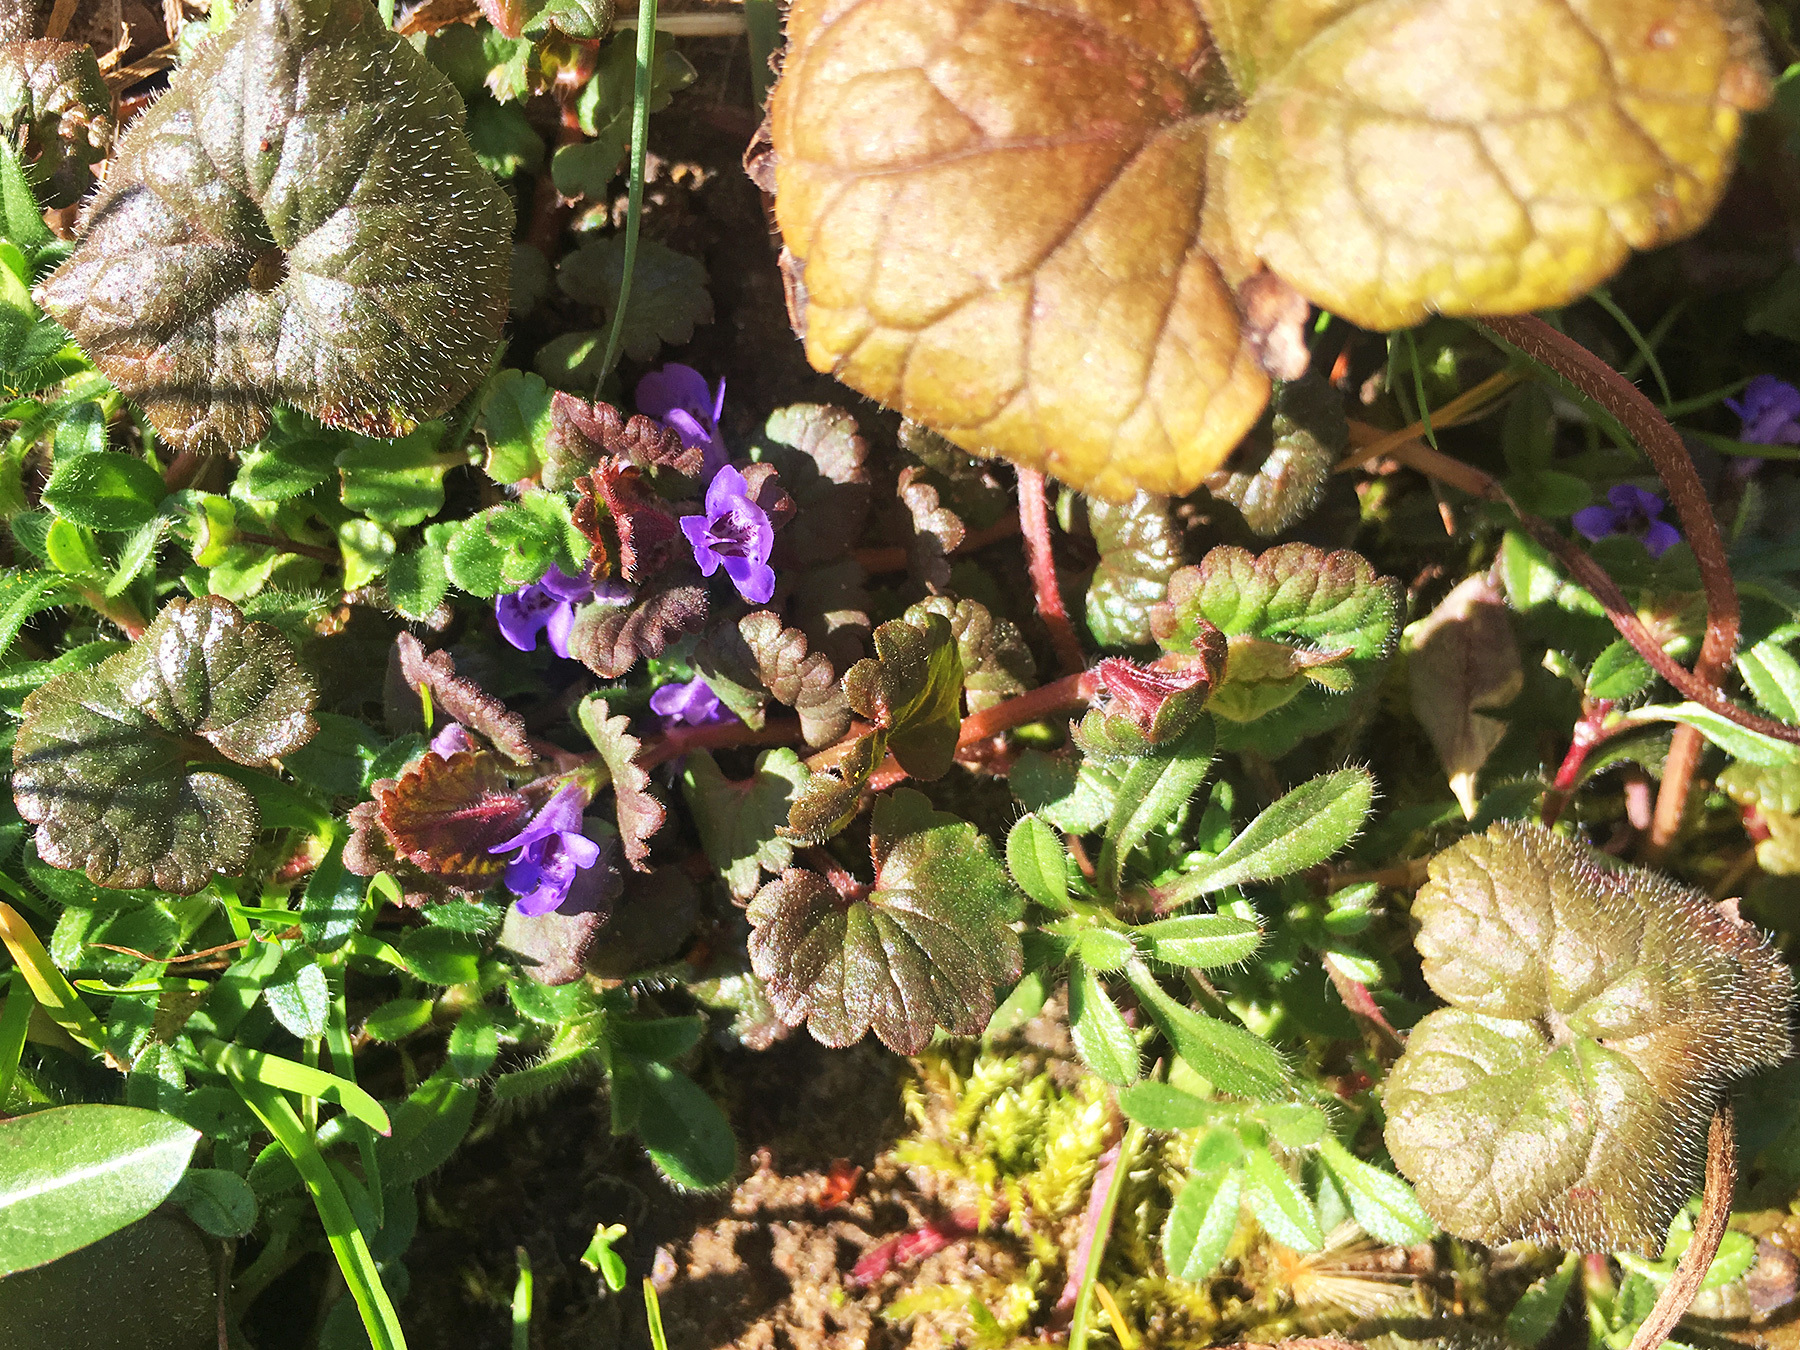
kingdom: Plantae
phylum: Tracheophyta
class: Magnoliopsida
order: Lamiales
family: Lamiaceae
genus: Glechoma
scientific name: Glechoma hederacea
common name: Ground ivy
